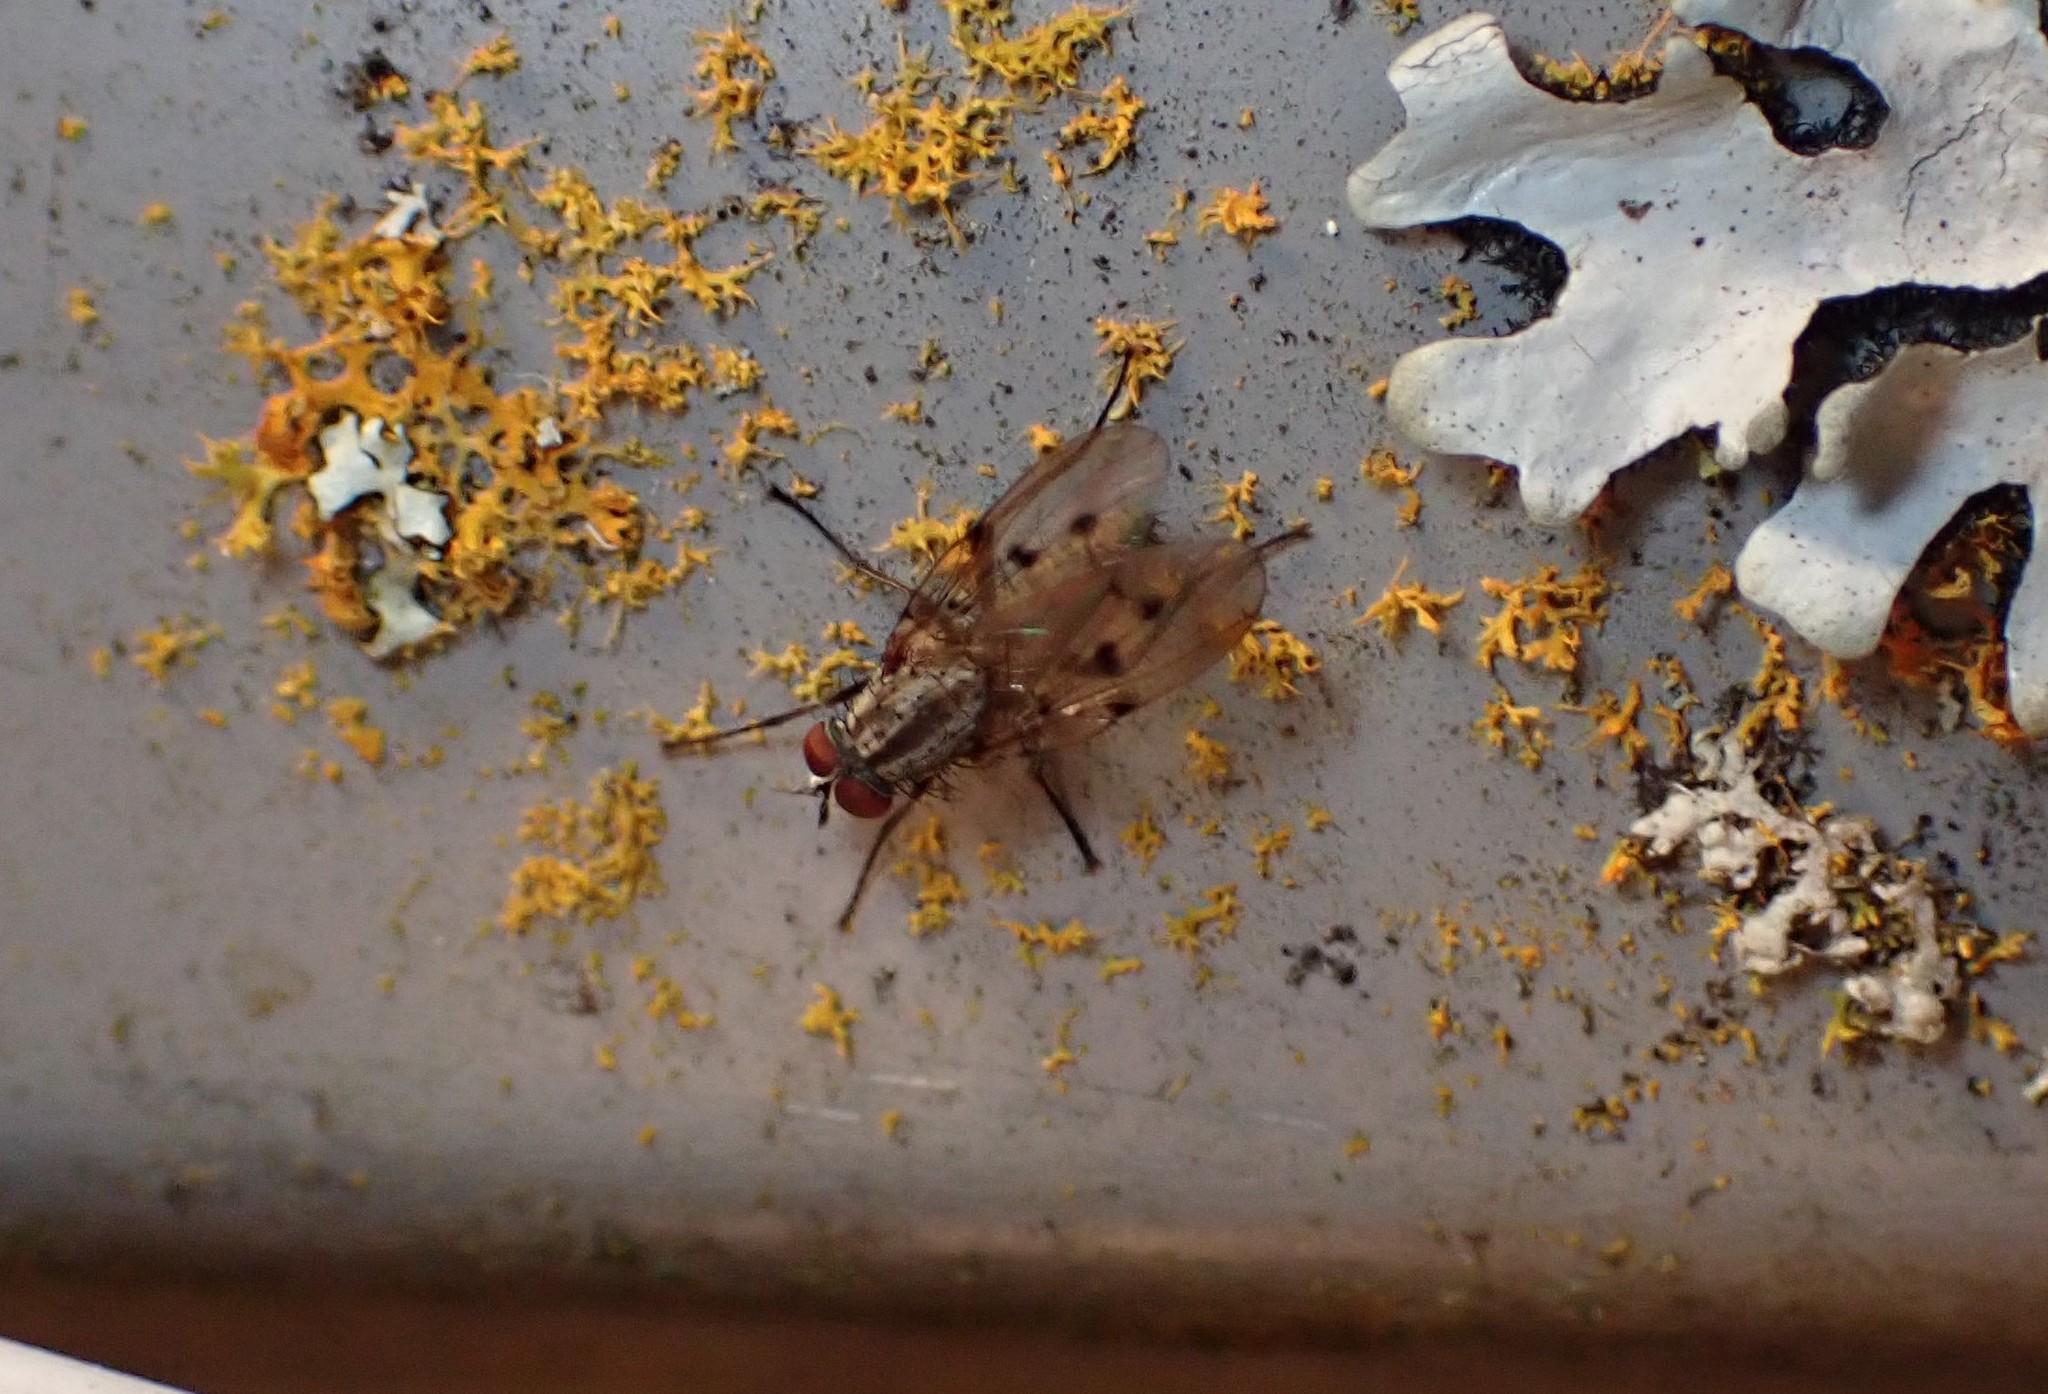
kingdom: Animalia
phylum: Arthropoda
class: Insecta
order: Diptera
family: Anthomyiidae
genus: Anthomyia
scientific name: Anthomyia punctipennis
